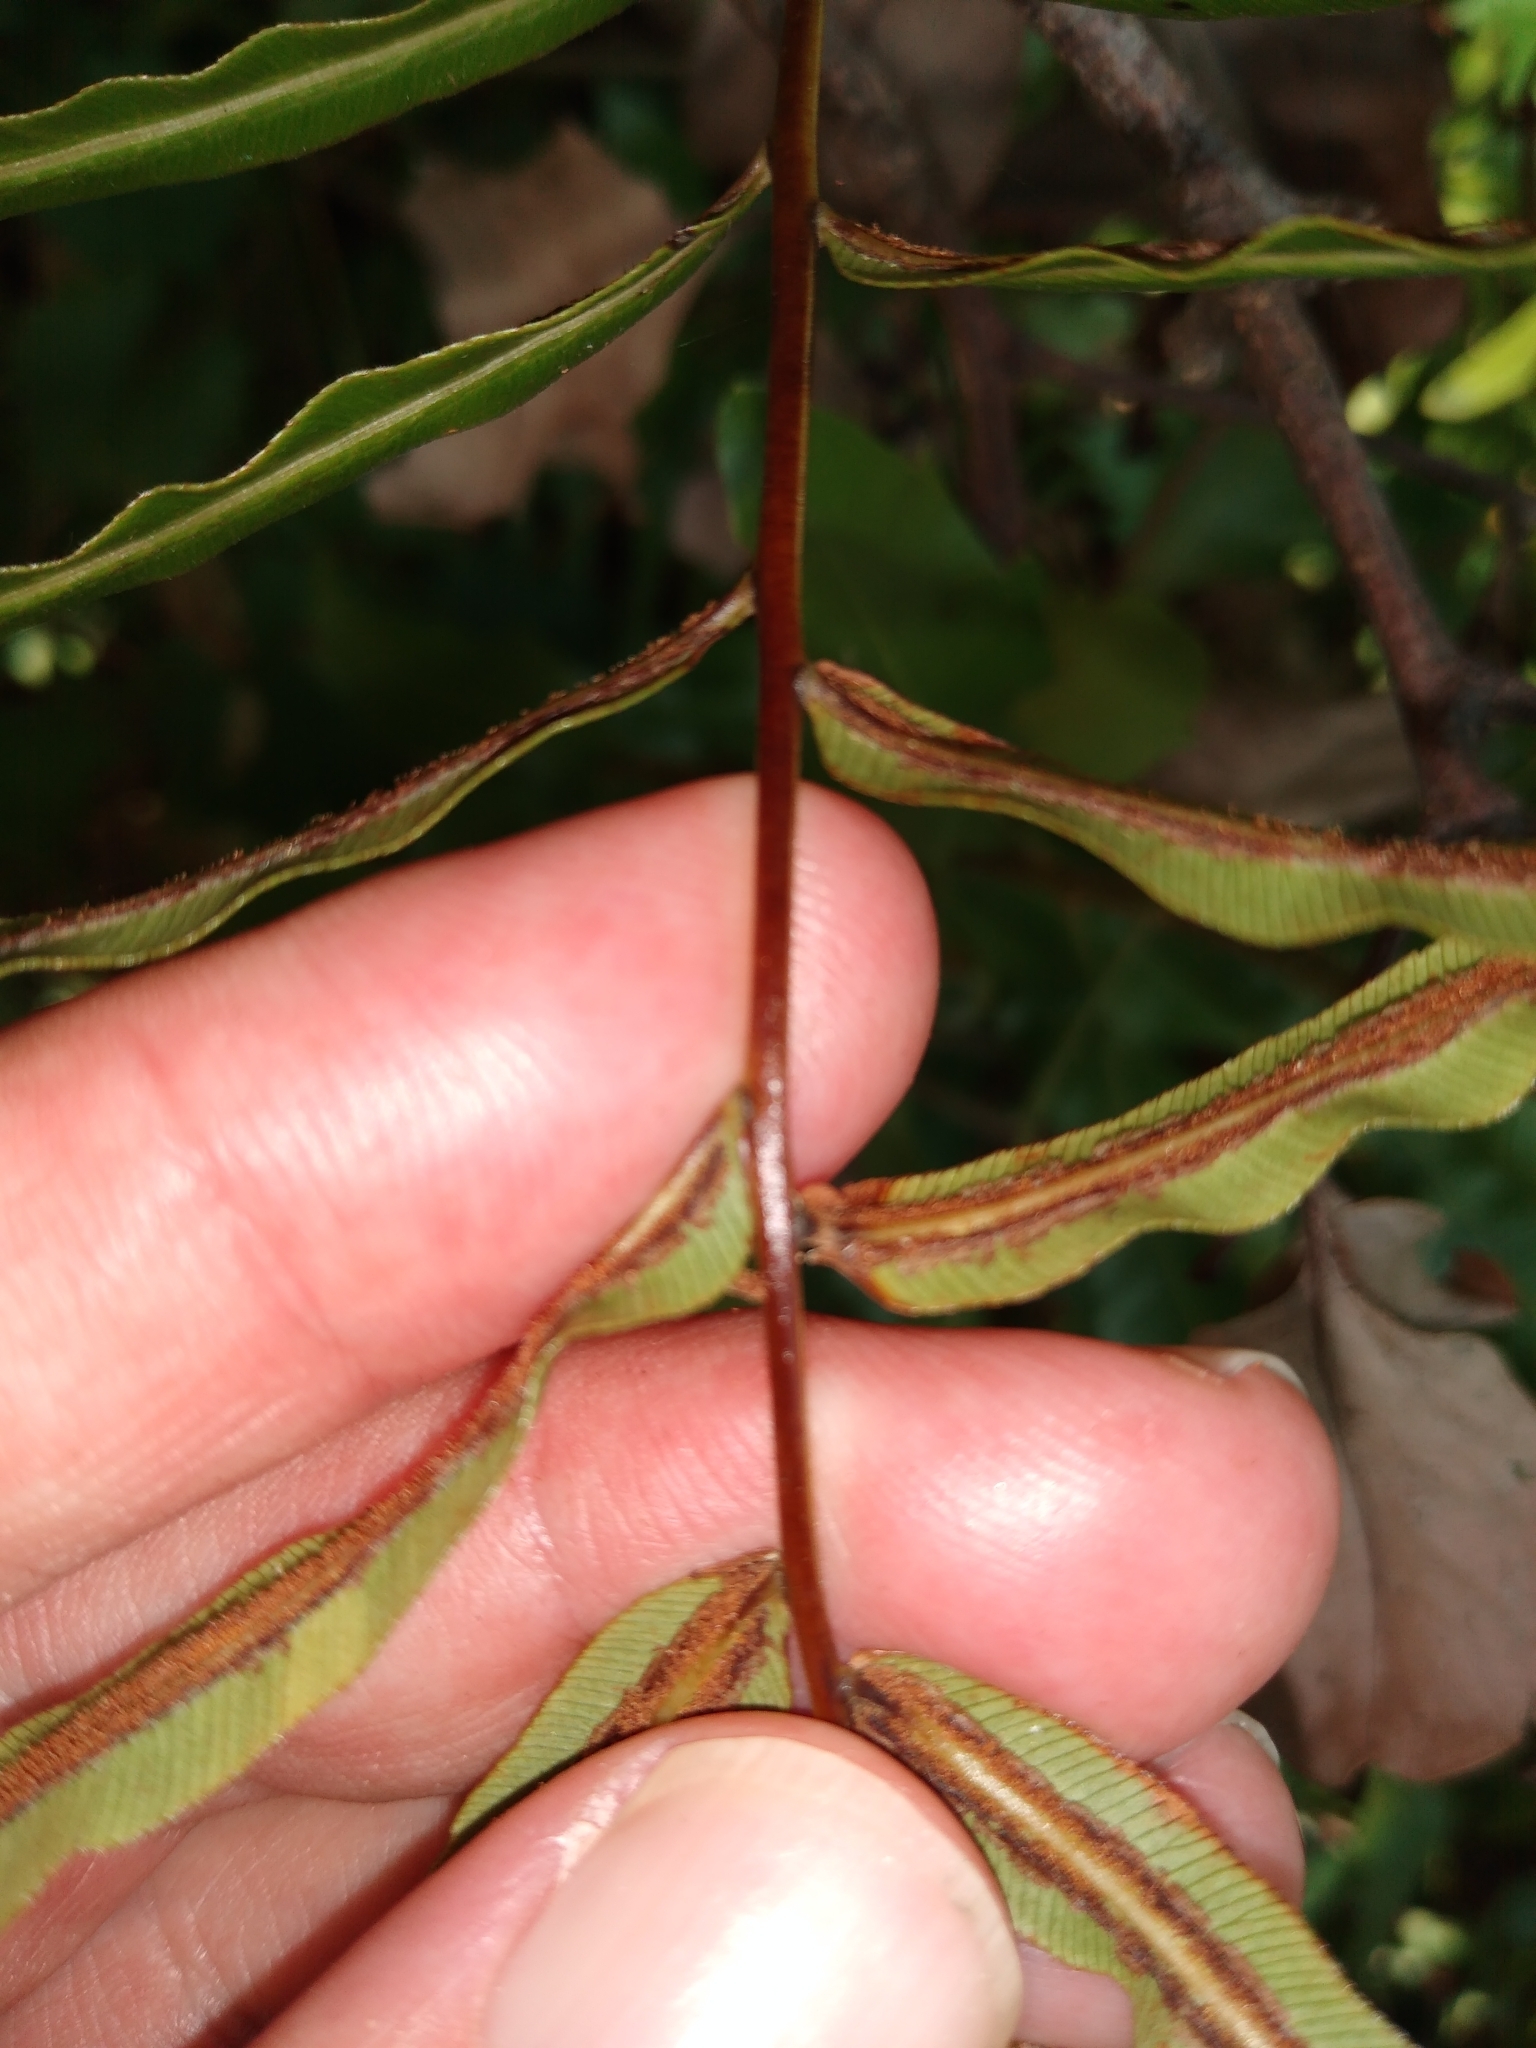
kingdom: Plantae
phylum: Tracheophyta
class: Polypodiopsida
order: Polypodiales
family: Blechnaceae
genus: Telmatoblechnum
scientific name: Telmatoblechnum serrulatum
